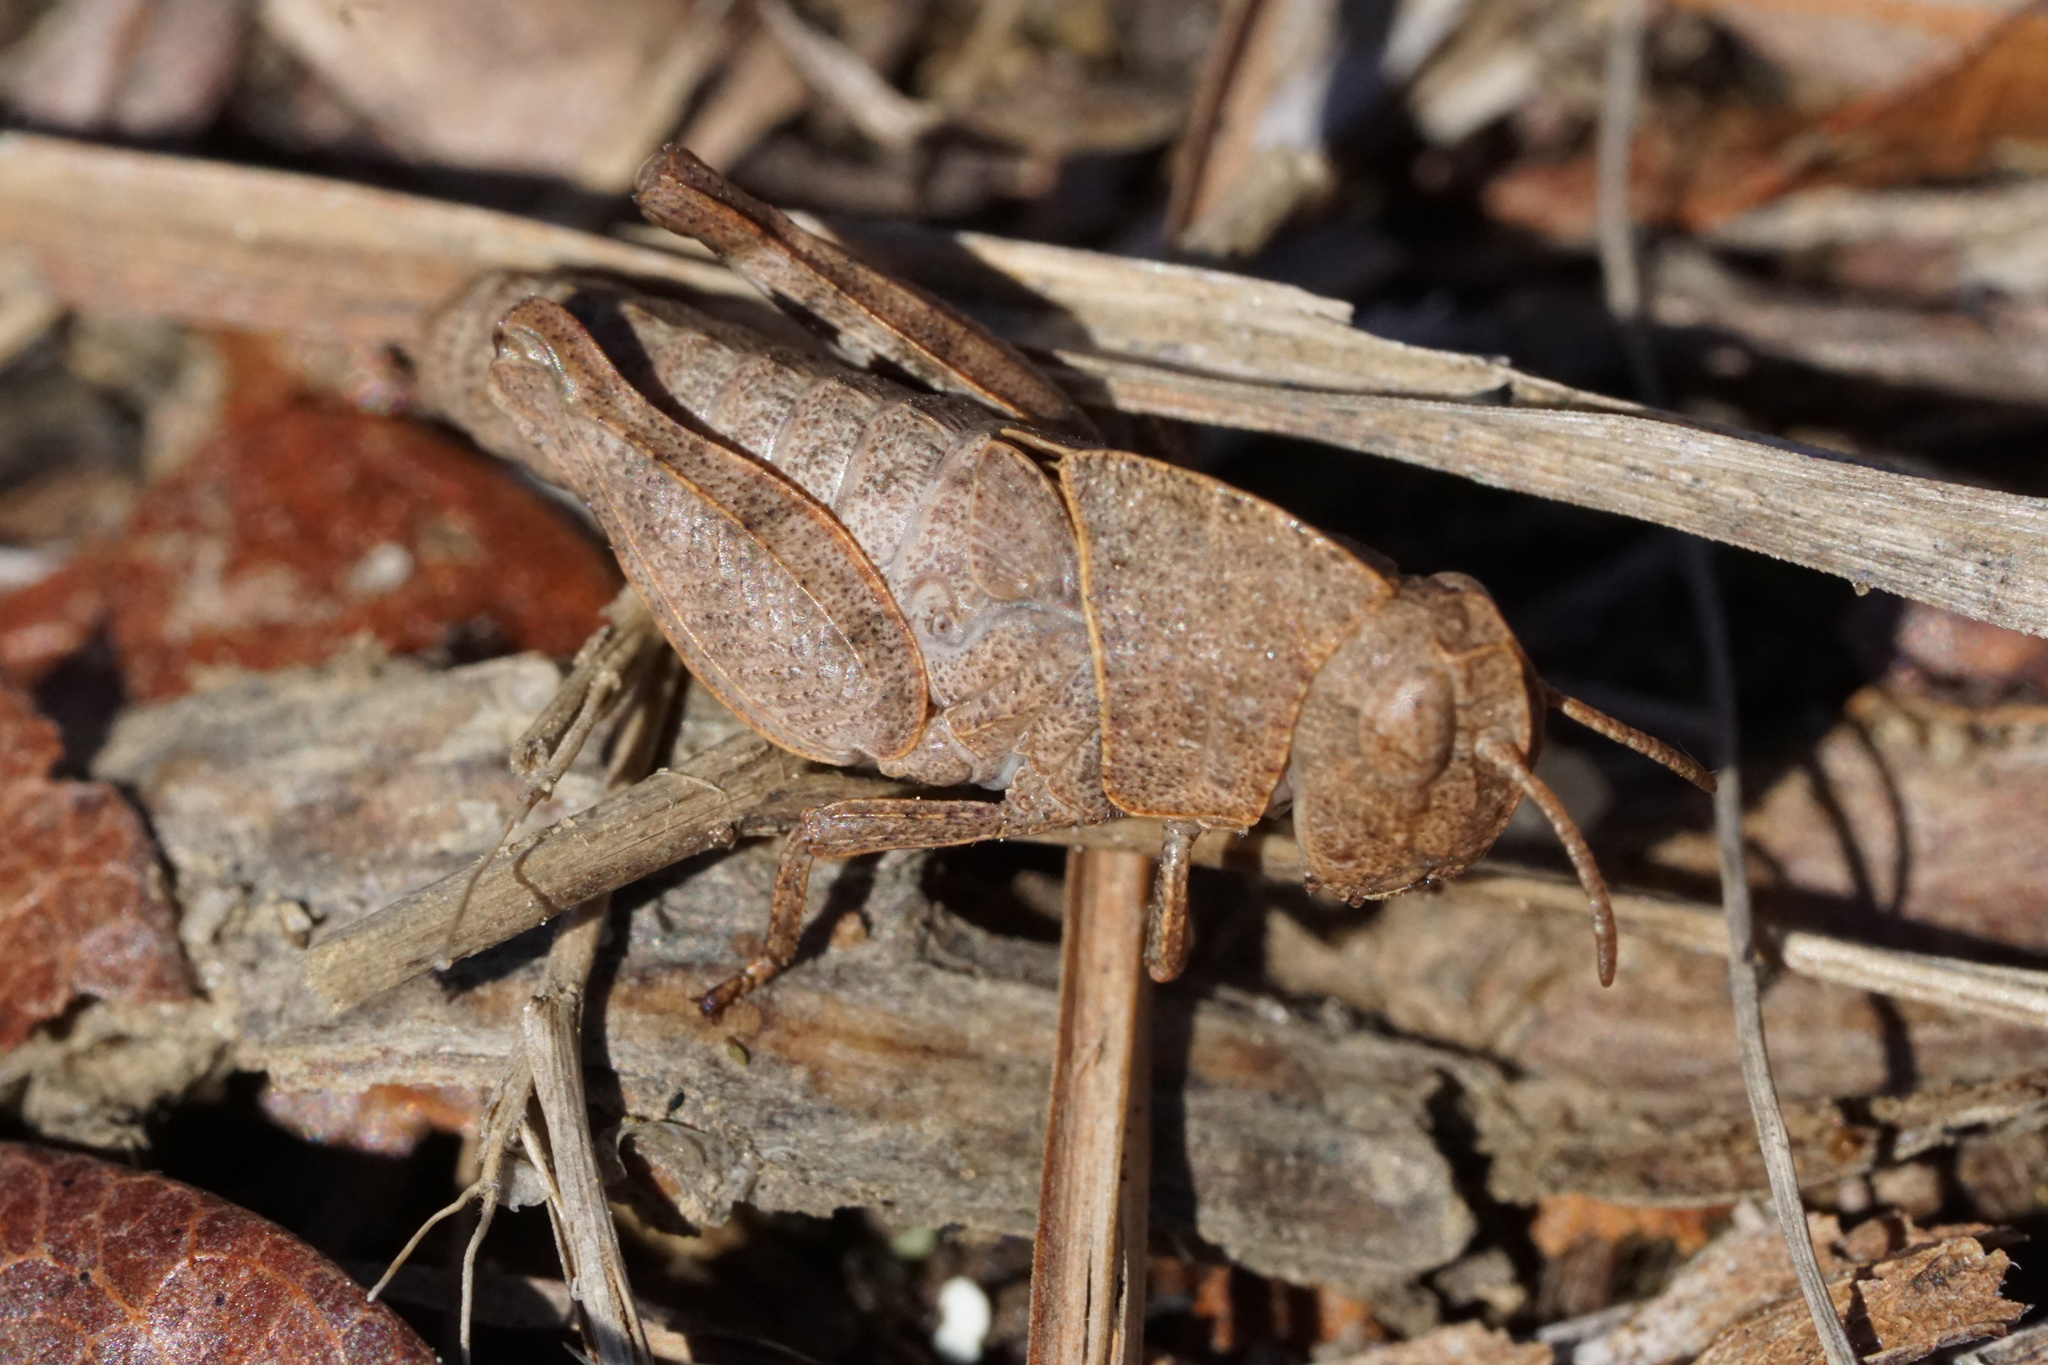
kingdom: Animalia
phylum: Arthropoda
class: Insecta
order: Orthoptera
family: Acrididae
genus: Arphia
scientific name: Arphia sulphurea
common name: Spring yellow-winged locust
